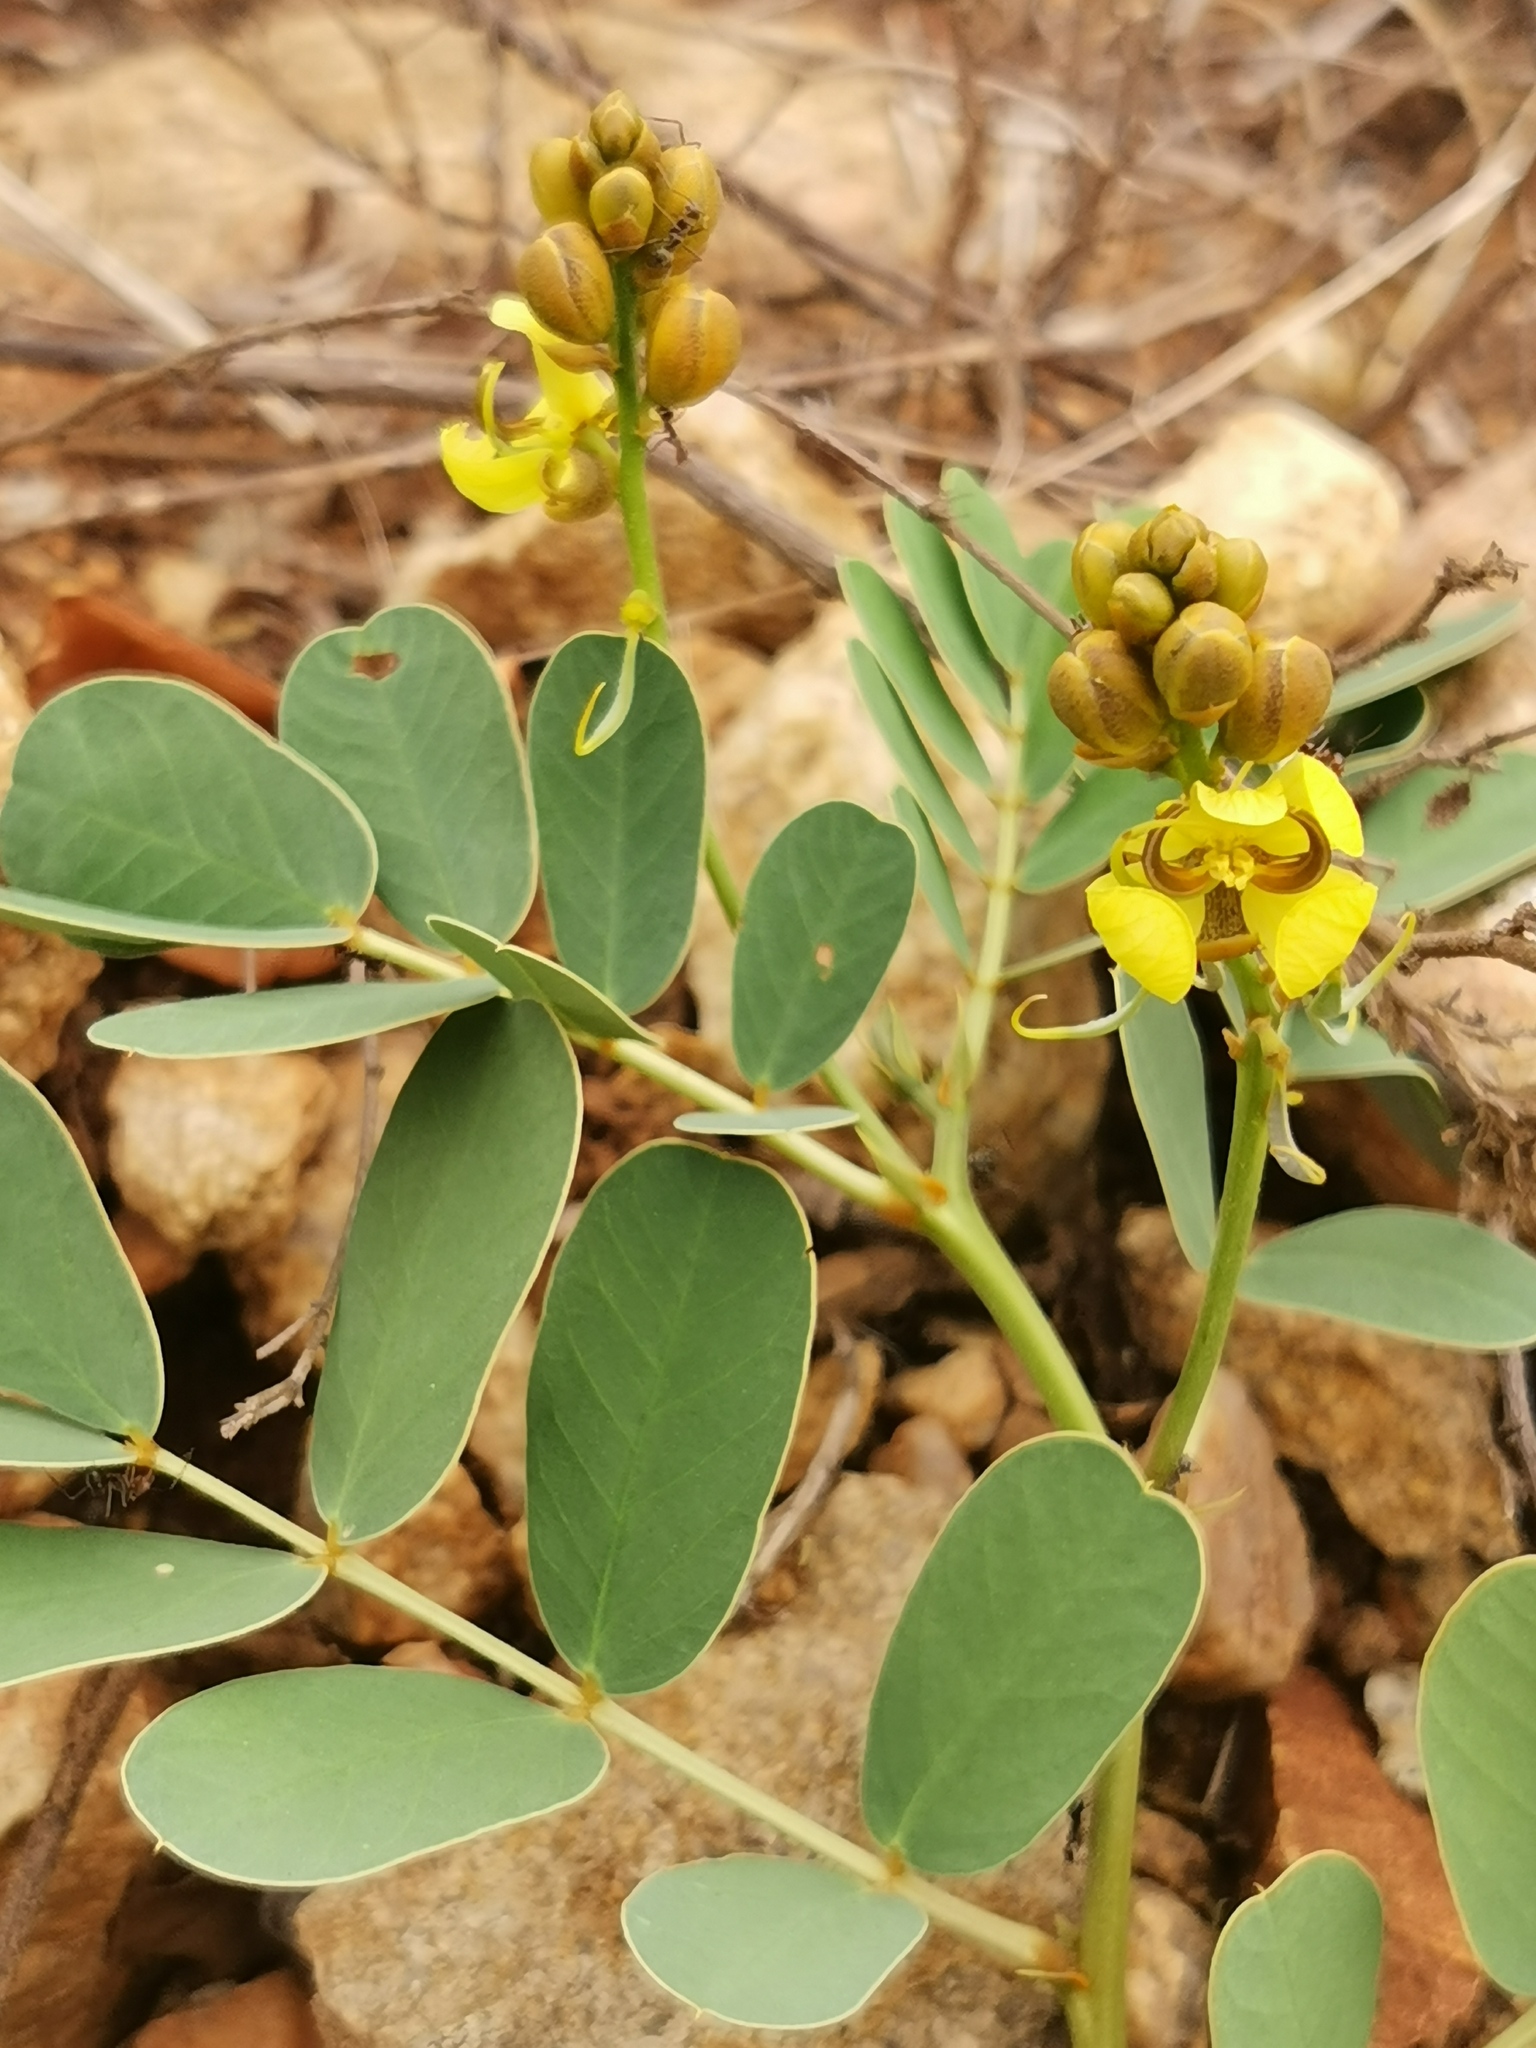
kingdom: Plantae
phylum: Tracheophyta
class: Magnoliopsida
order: Fabales
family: Fabaceae
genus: Senna
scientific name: Senna italica
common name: Port royal senna
